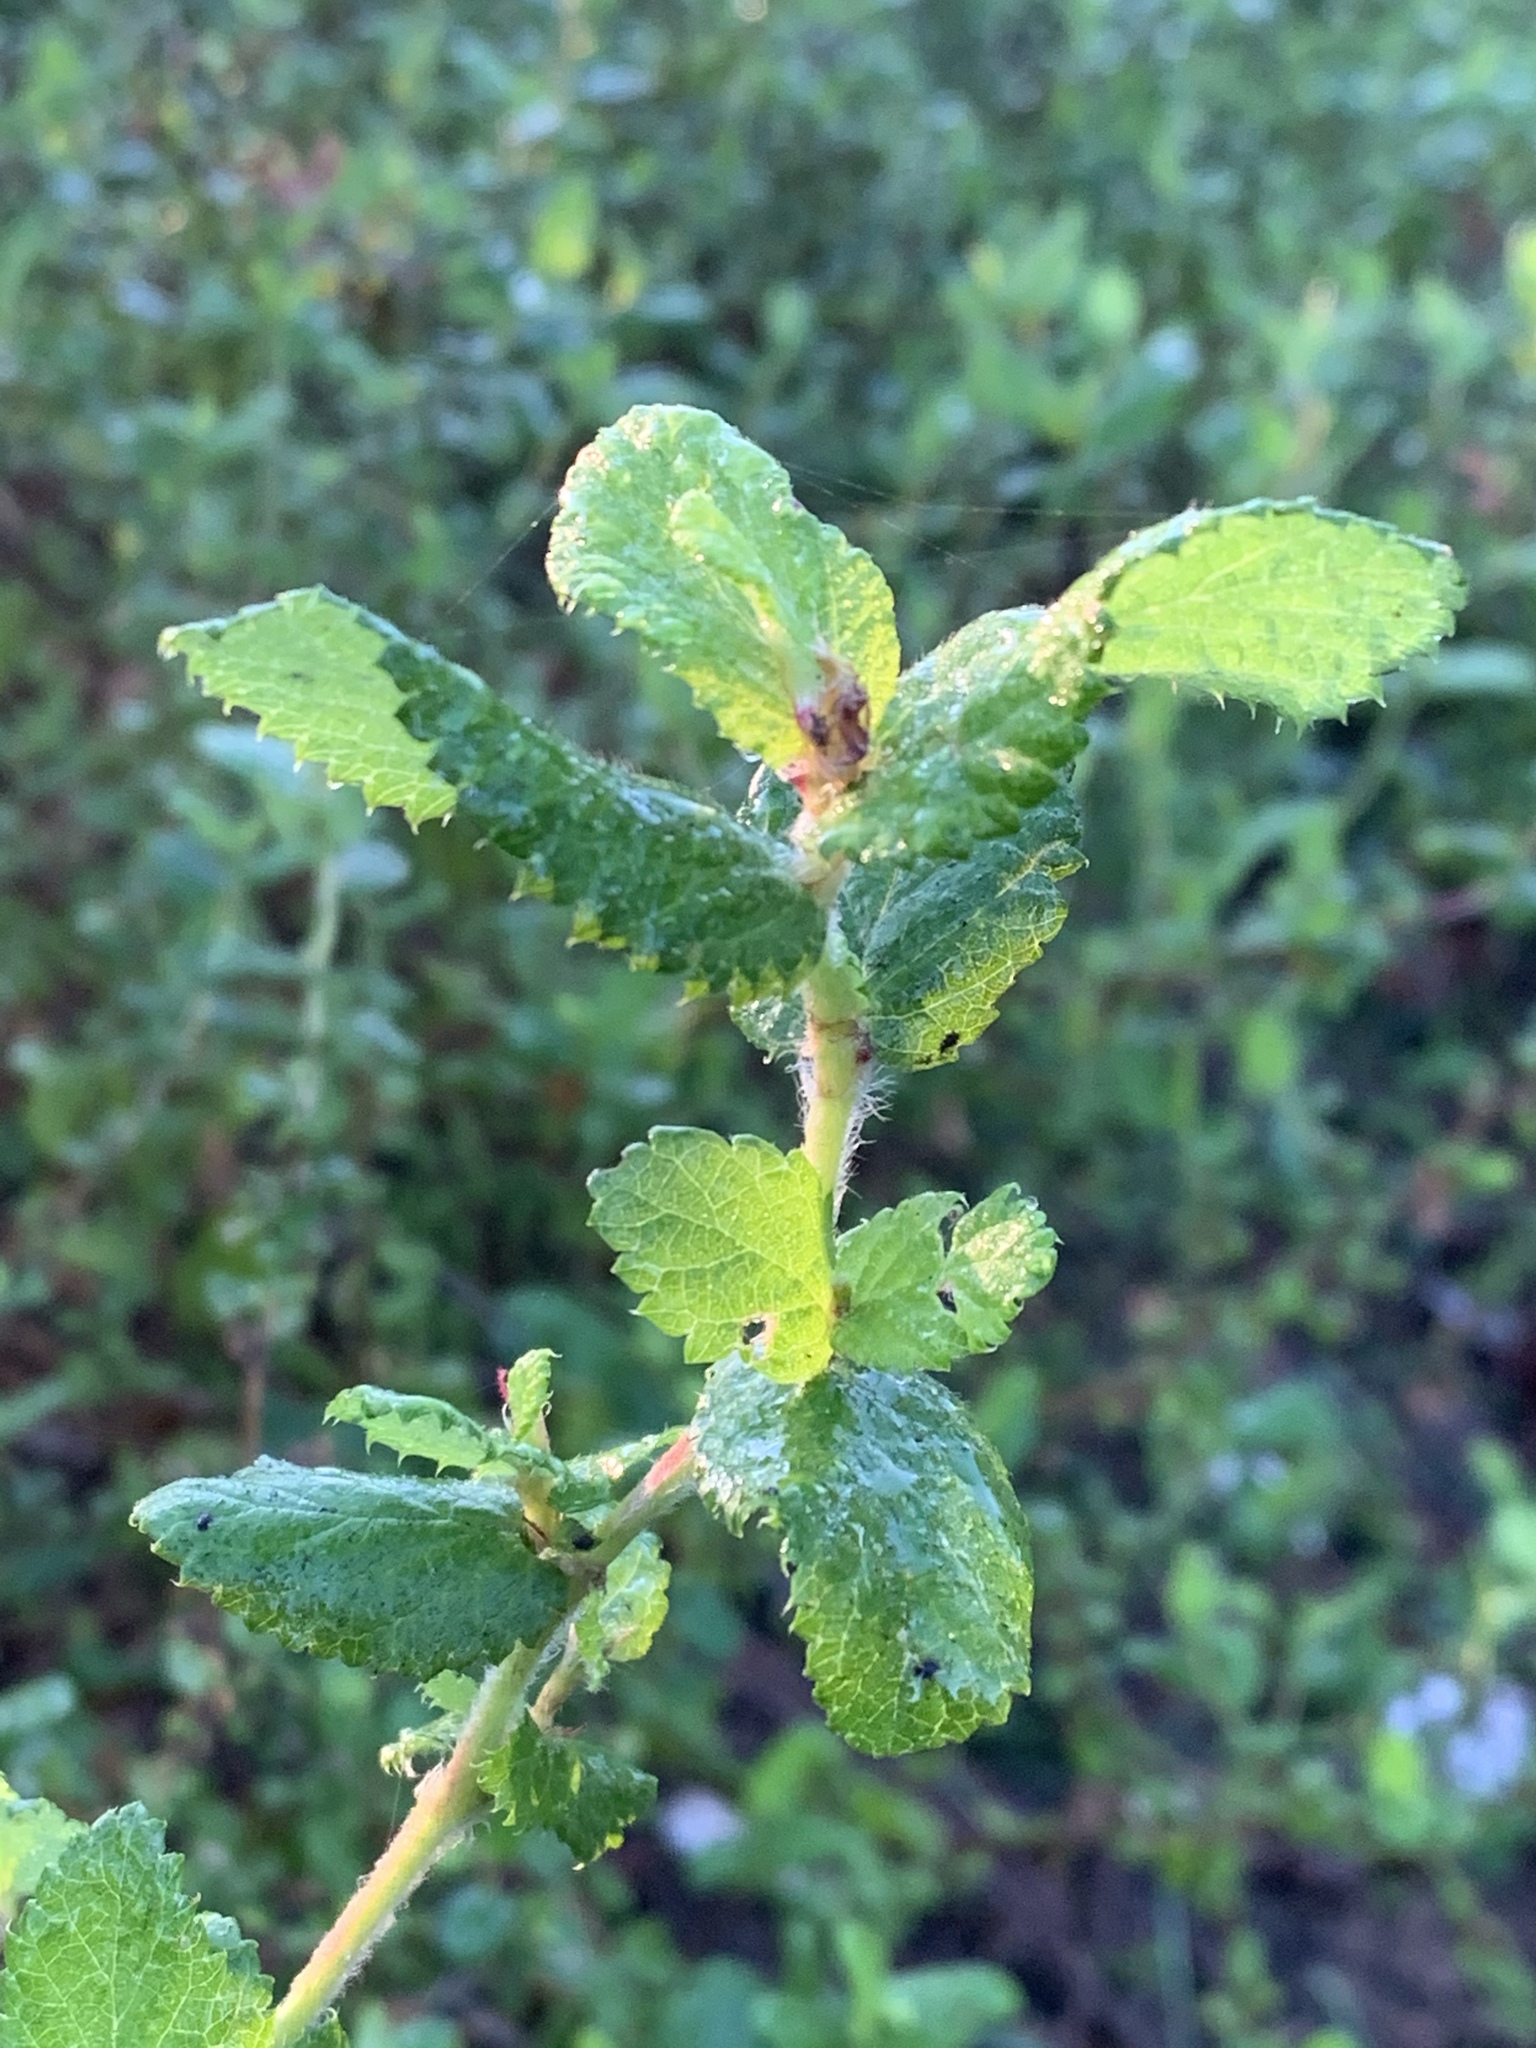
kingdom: Plantae
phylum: Tracheophyta
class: Magnoliopsida
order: Rosales
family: Rosaceae
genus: Cliffortia
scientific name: Cliffortia odorata
